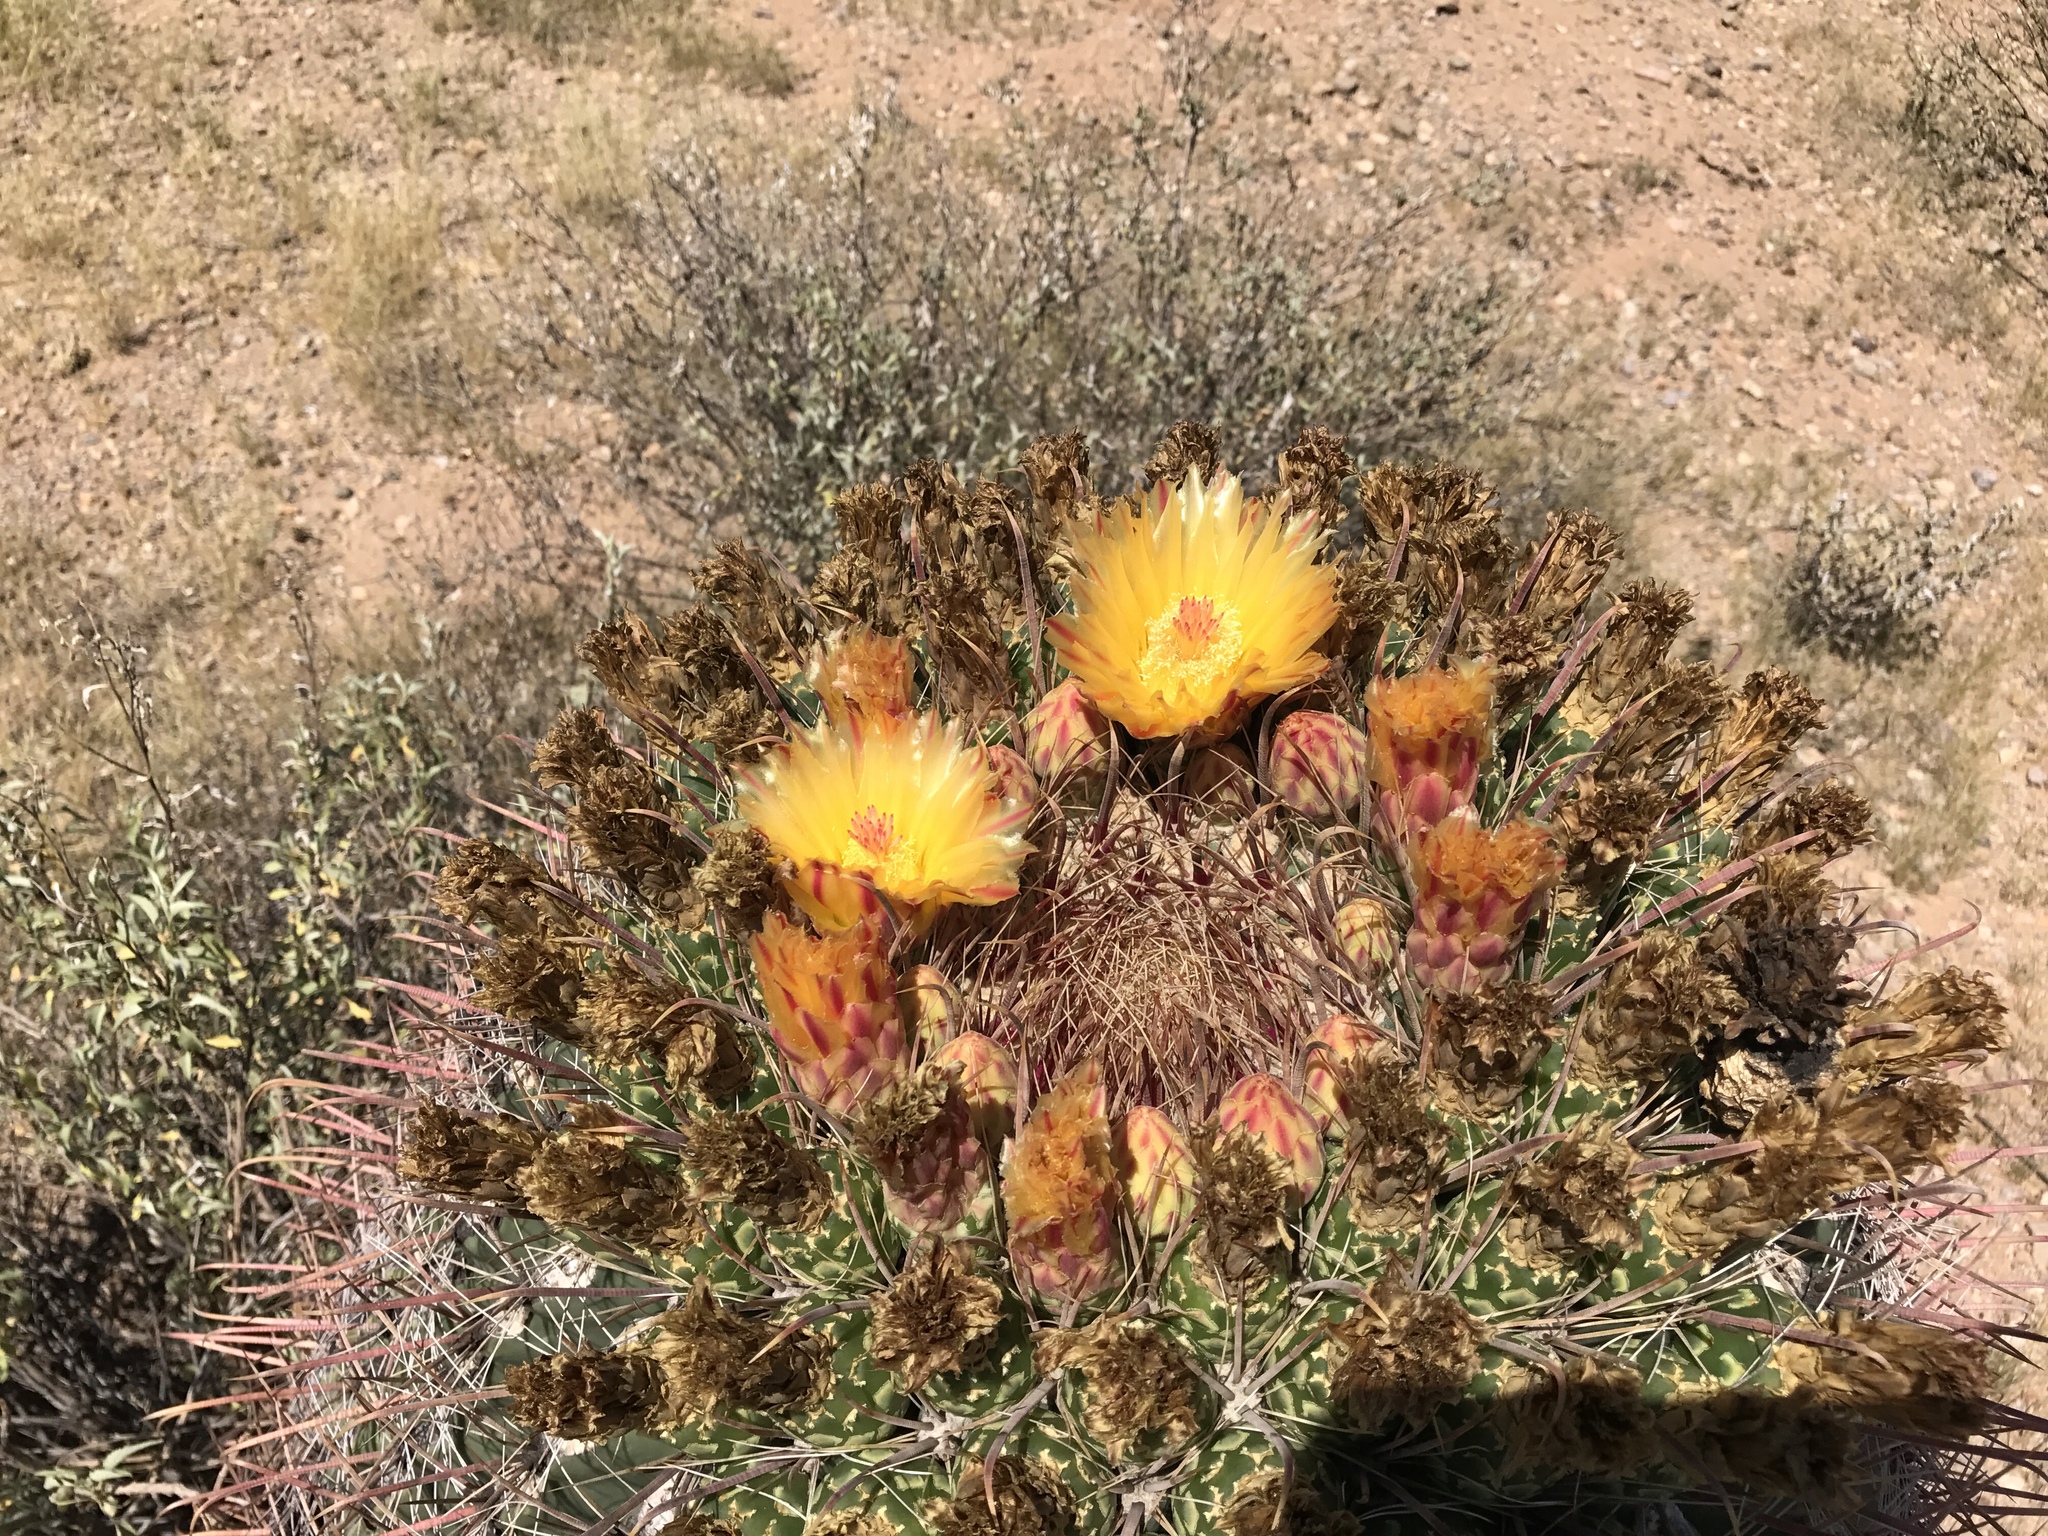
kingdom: Plantae
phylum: Tracheophyta
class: Magnoliopsida
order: Caryophyllales
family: Cactaceae
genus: Ferocactus
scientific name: Ferocactus wislizeni
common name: Candy barrel cactus
